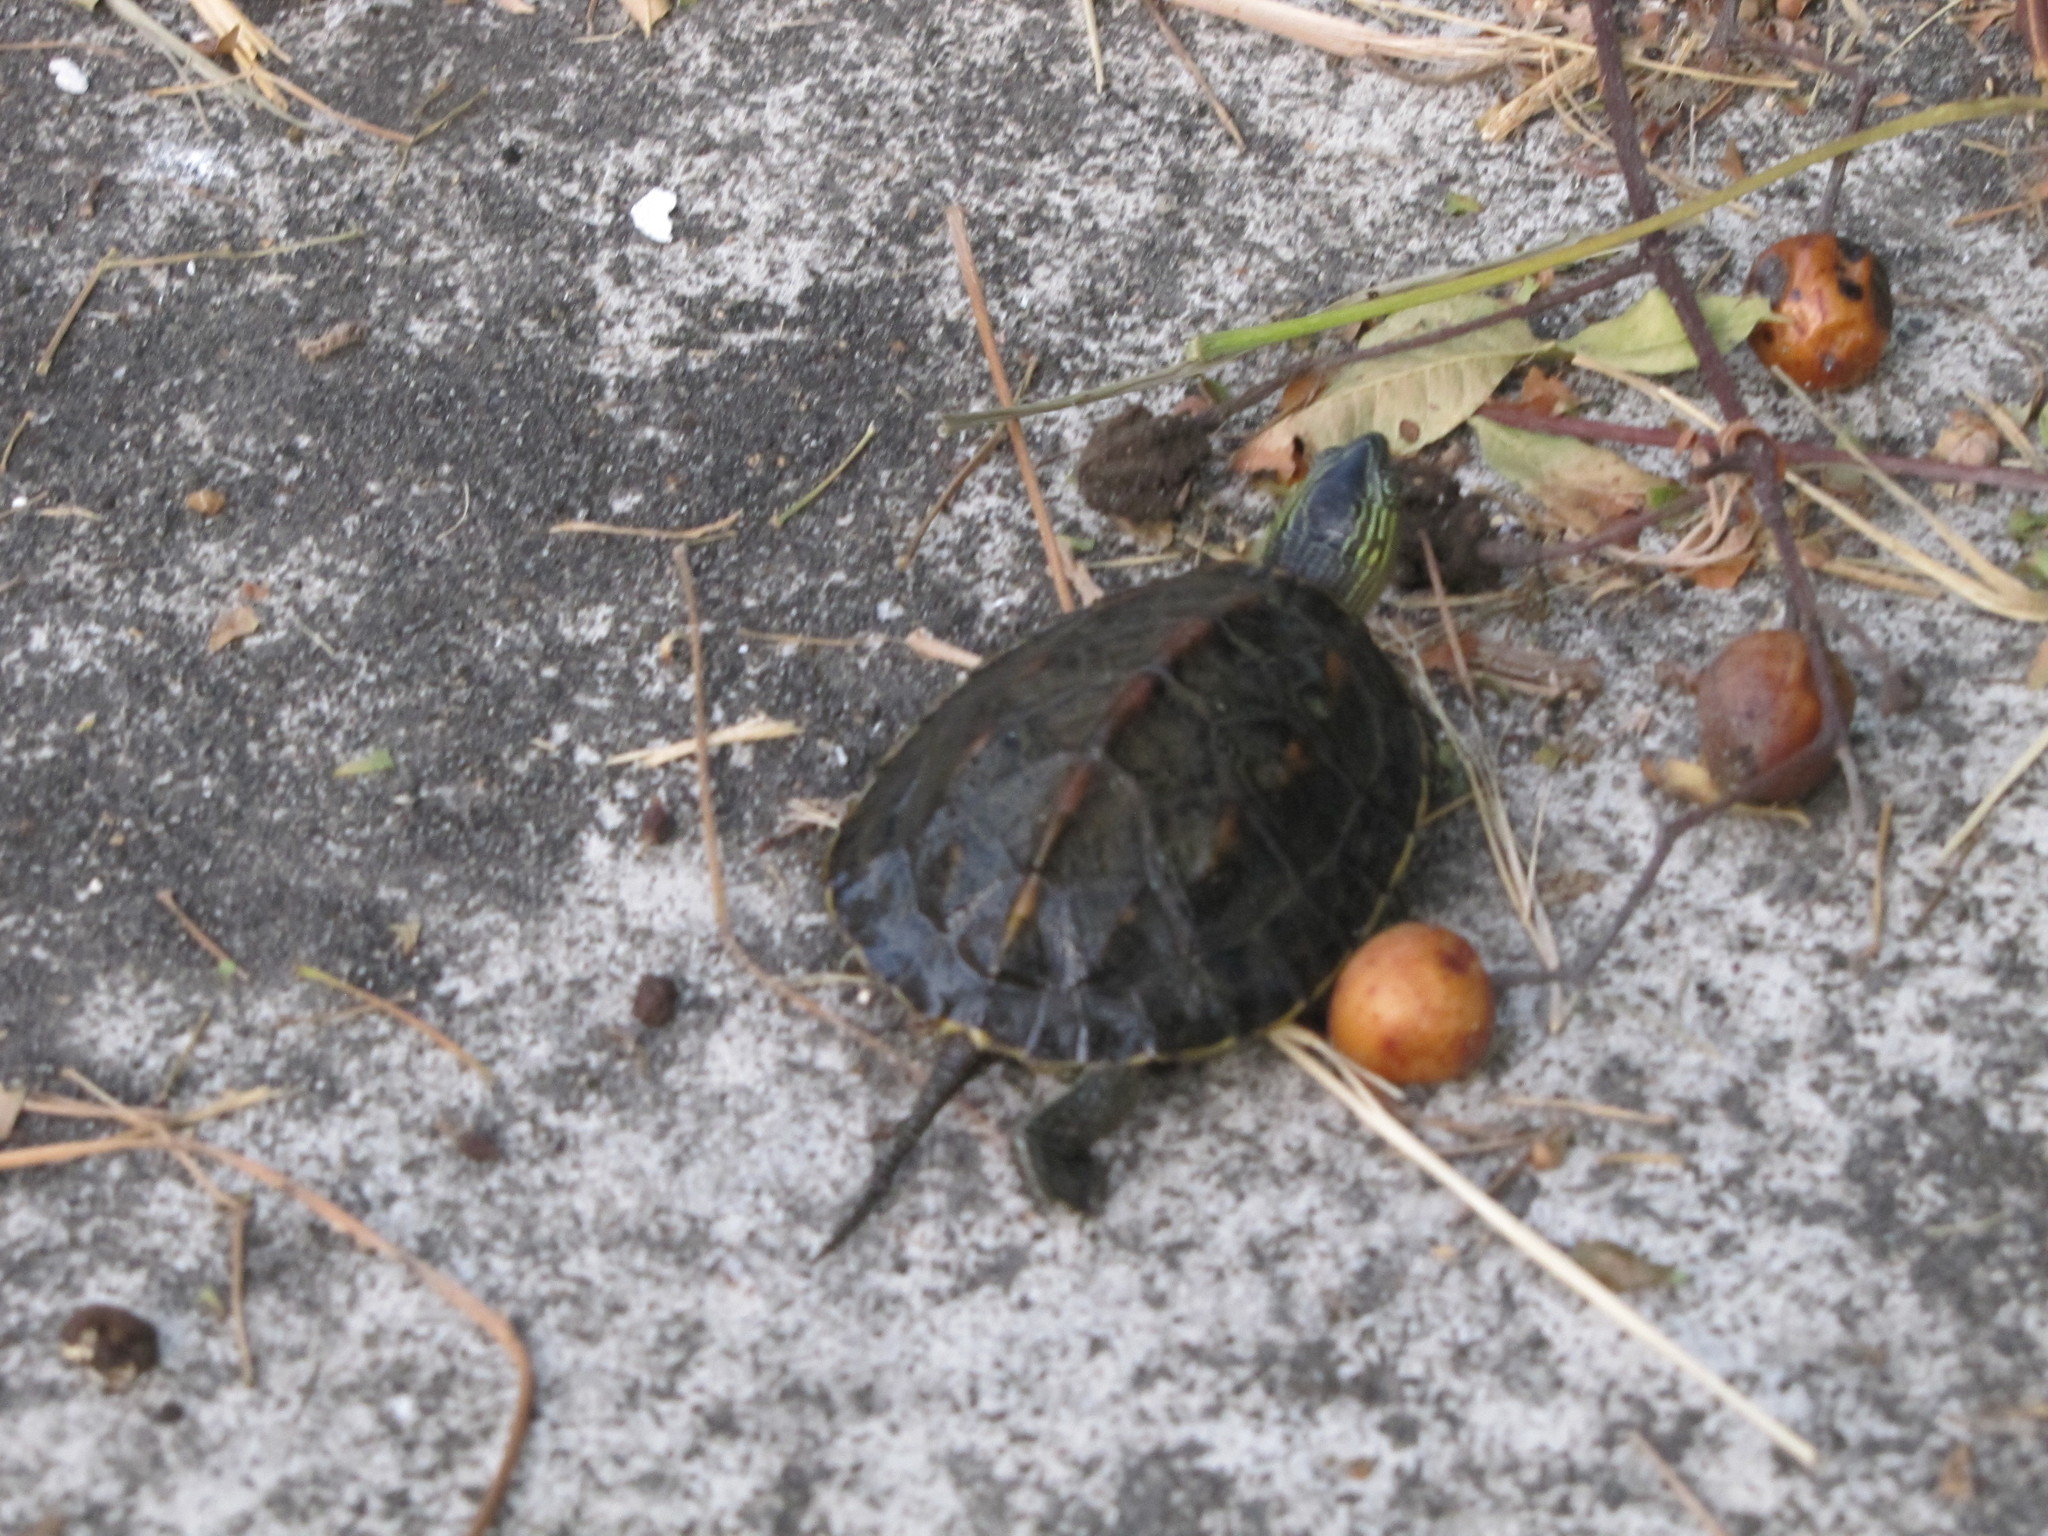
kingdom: Animalia
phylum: Chordata
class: Testudines
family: Geoemydidae
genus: Mauremys
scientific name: Mauremys sinensis
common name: Chinese stripe-necked turtle
